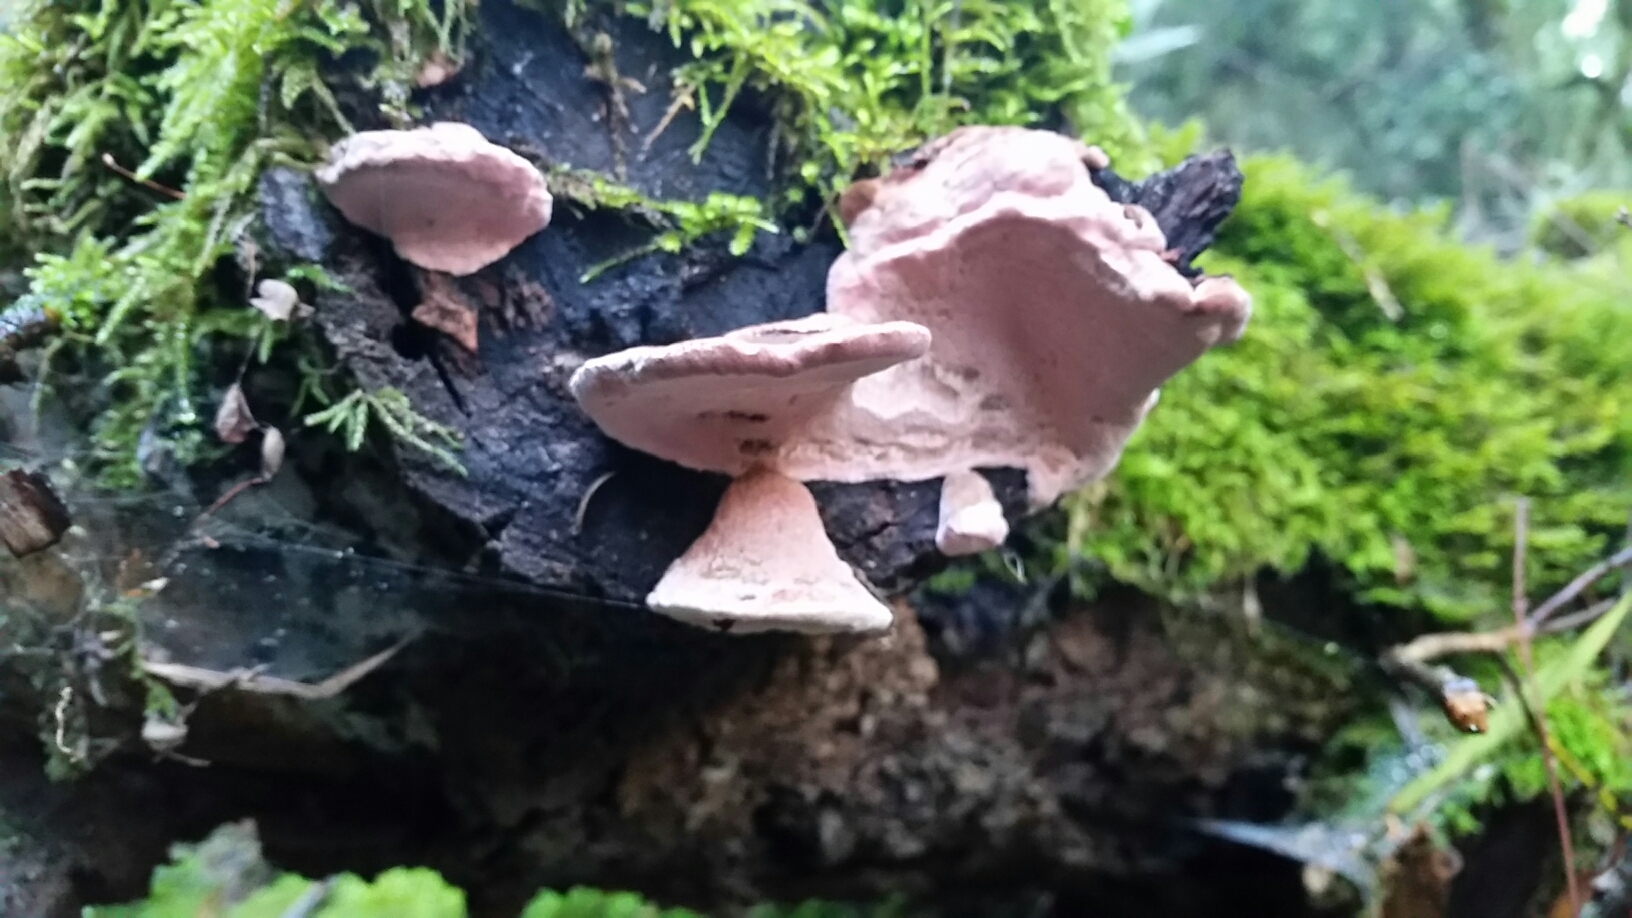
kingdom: Fungi
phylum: Basidiomycota
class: Agaricomycetes
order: Polyporales
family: Fomitopsidaceae
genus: Rhodofomes
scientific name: Rhodofomes cajanderi
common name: Rosy conk
